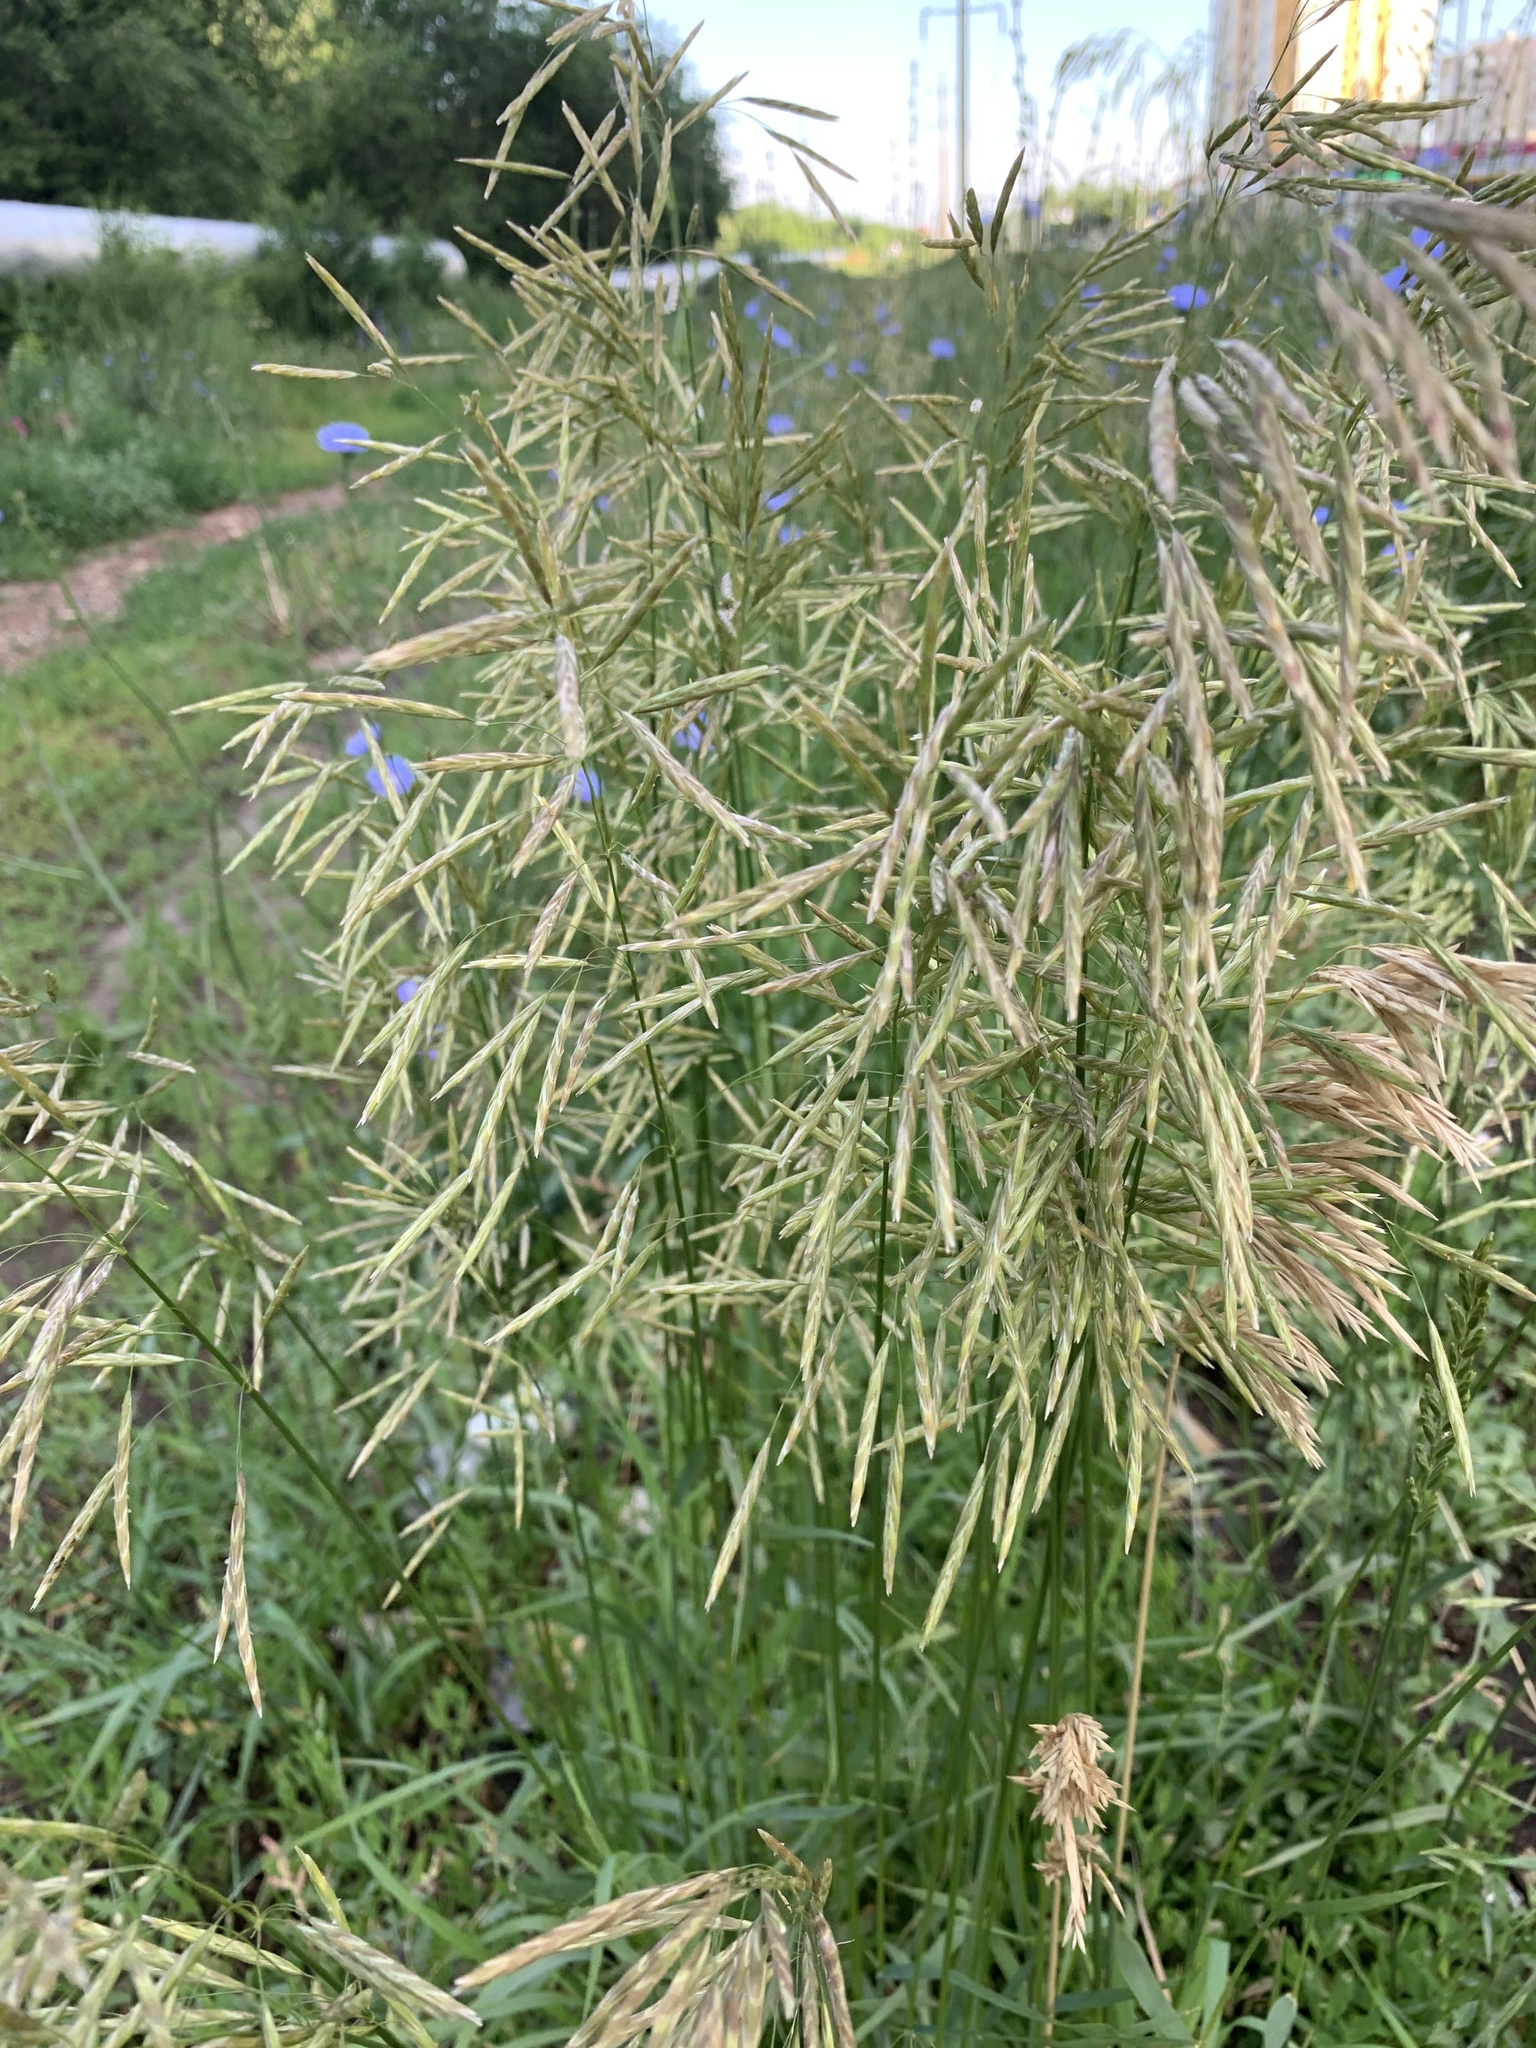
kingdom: Plantae
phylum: Tracheophyta
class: Liliopsida
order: Poales
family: Poaceae
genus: Bromus
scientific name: Bromus inermis
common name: Smooth brome
